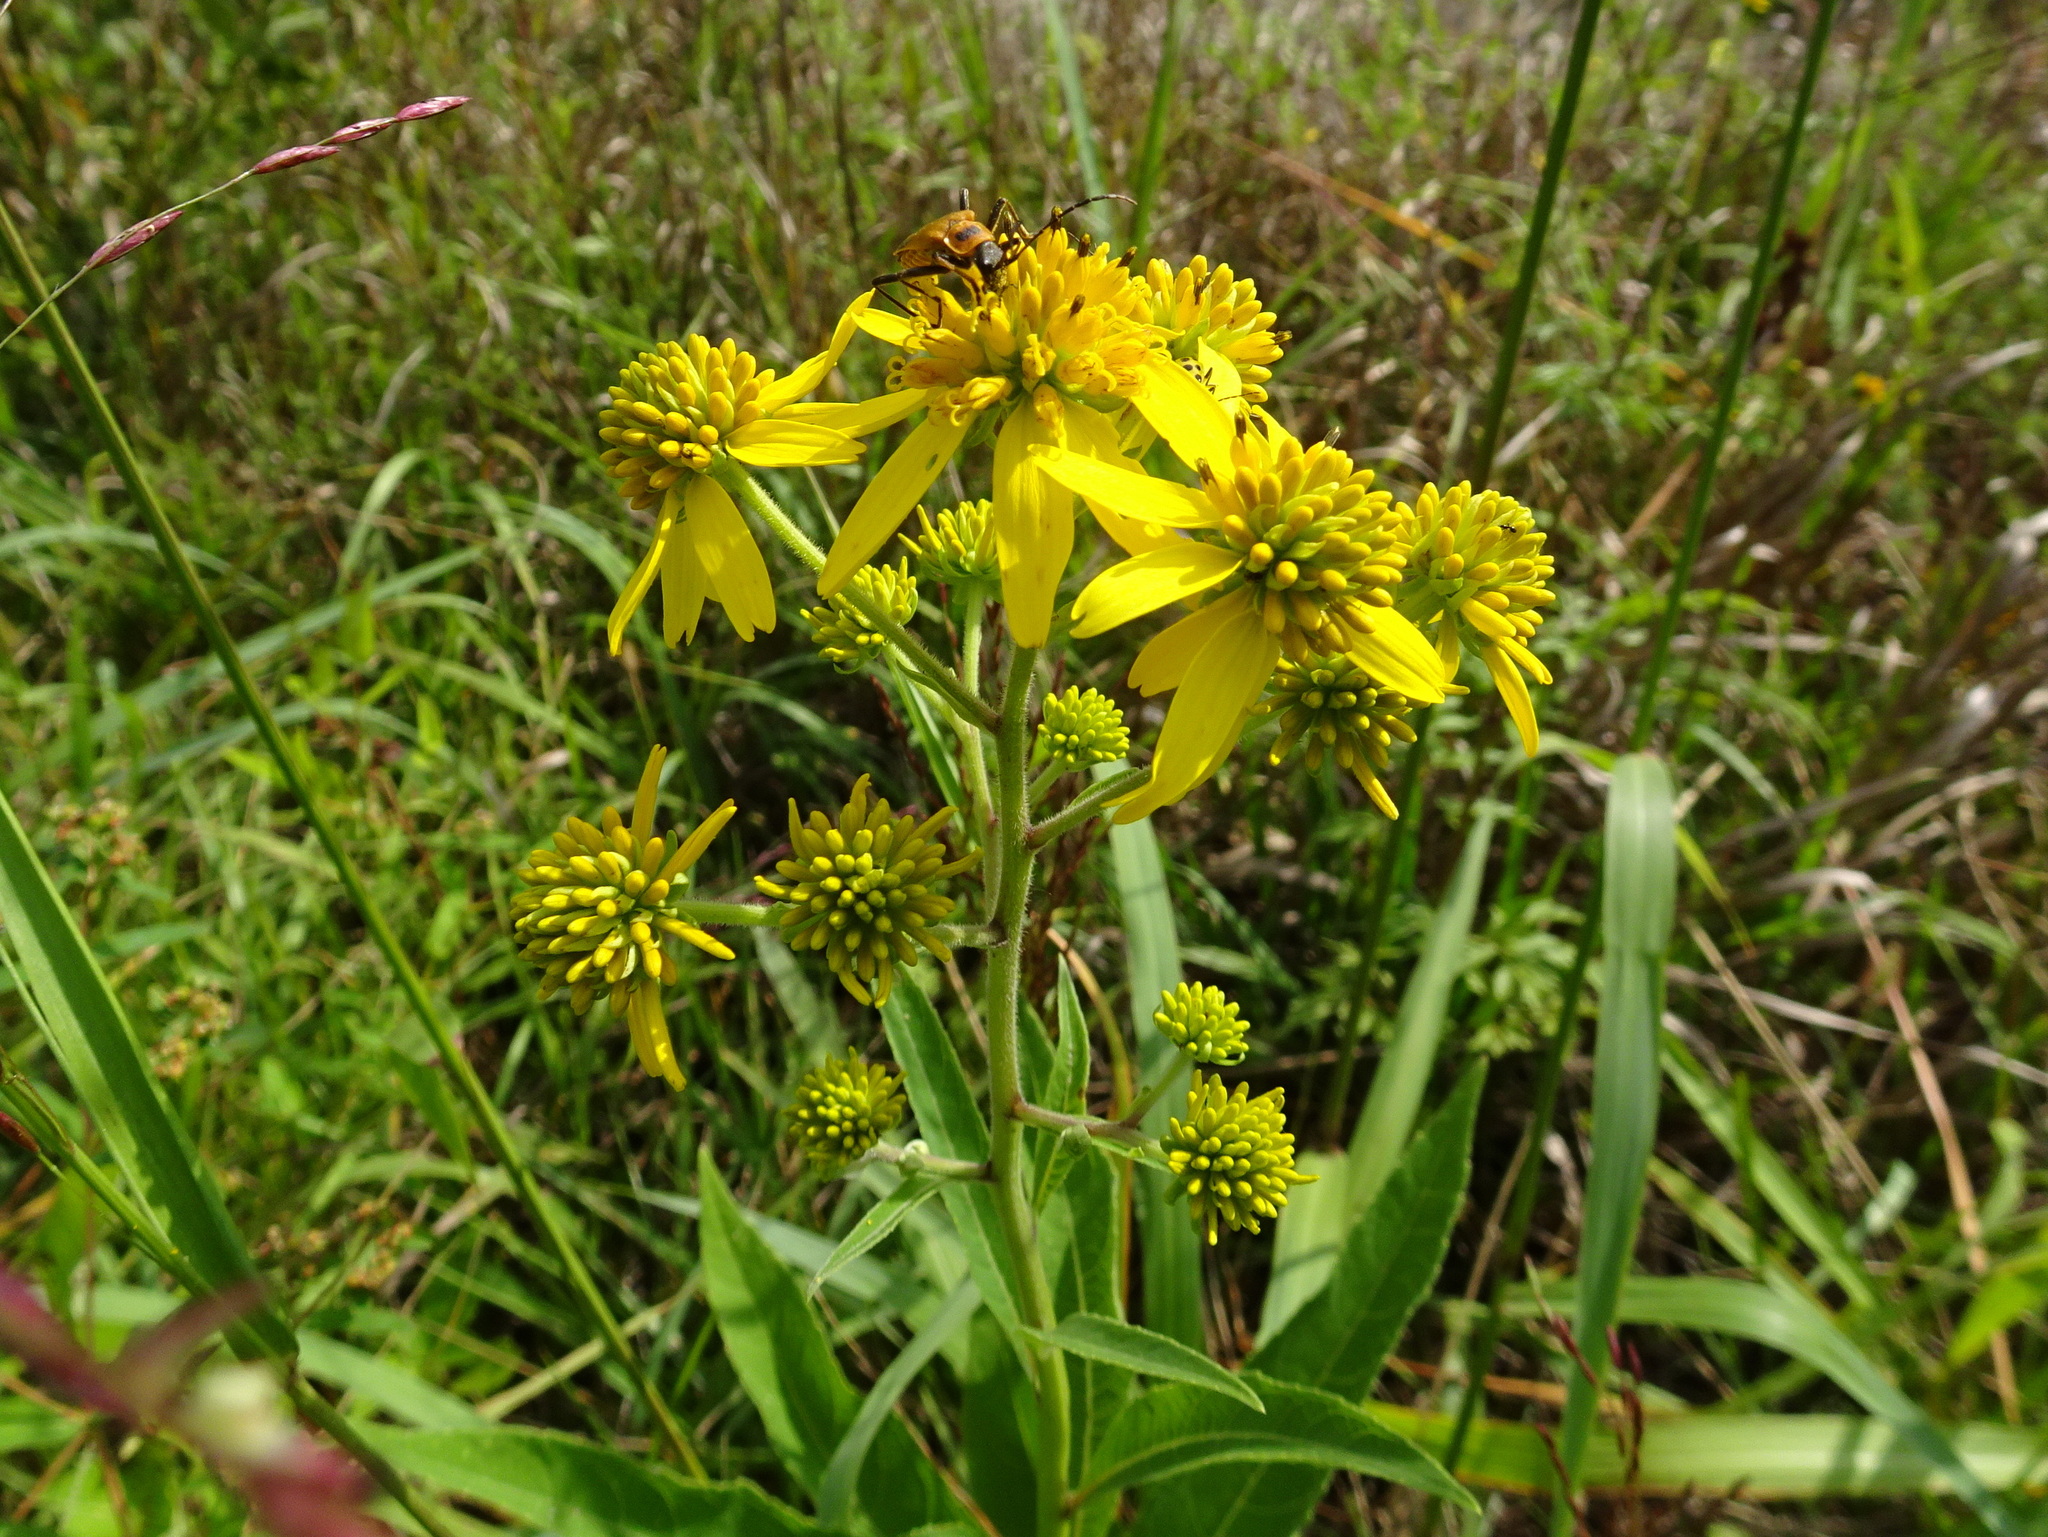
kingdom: Plantae
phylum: Tracheophyta
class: Magnoliopsida
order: Asterales
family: Asteraceae
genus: Verbesina
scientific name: Verbesina alternifolia
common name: Wingstem
